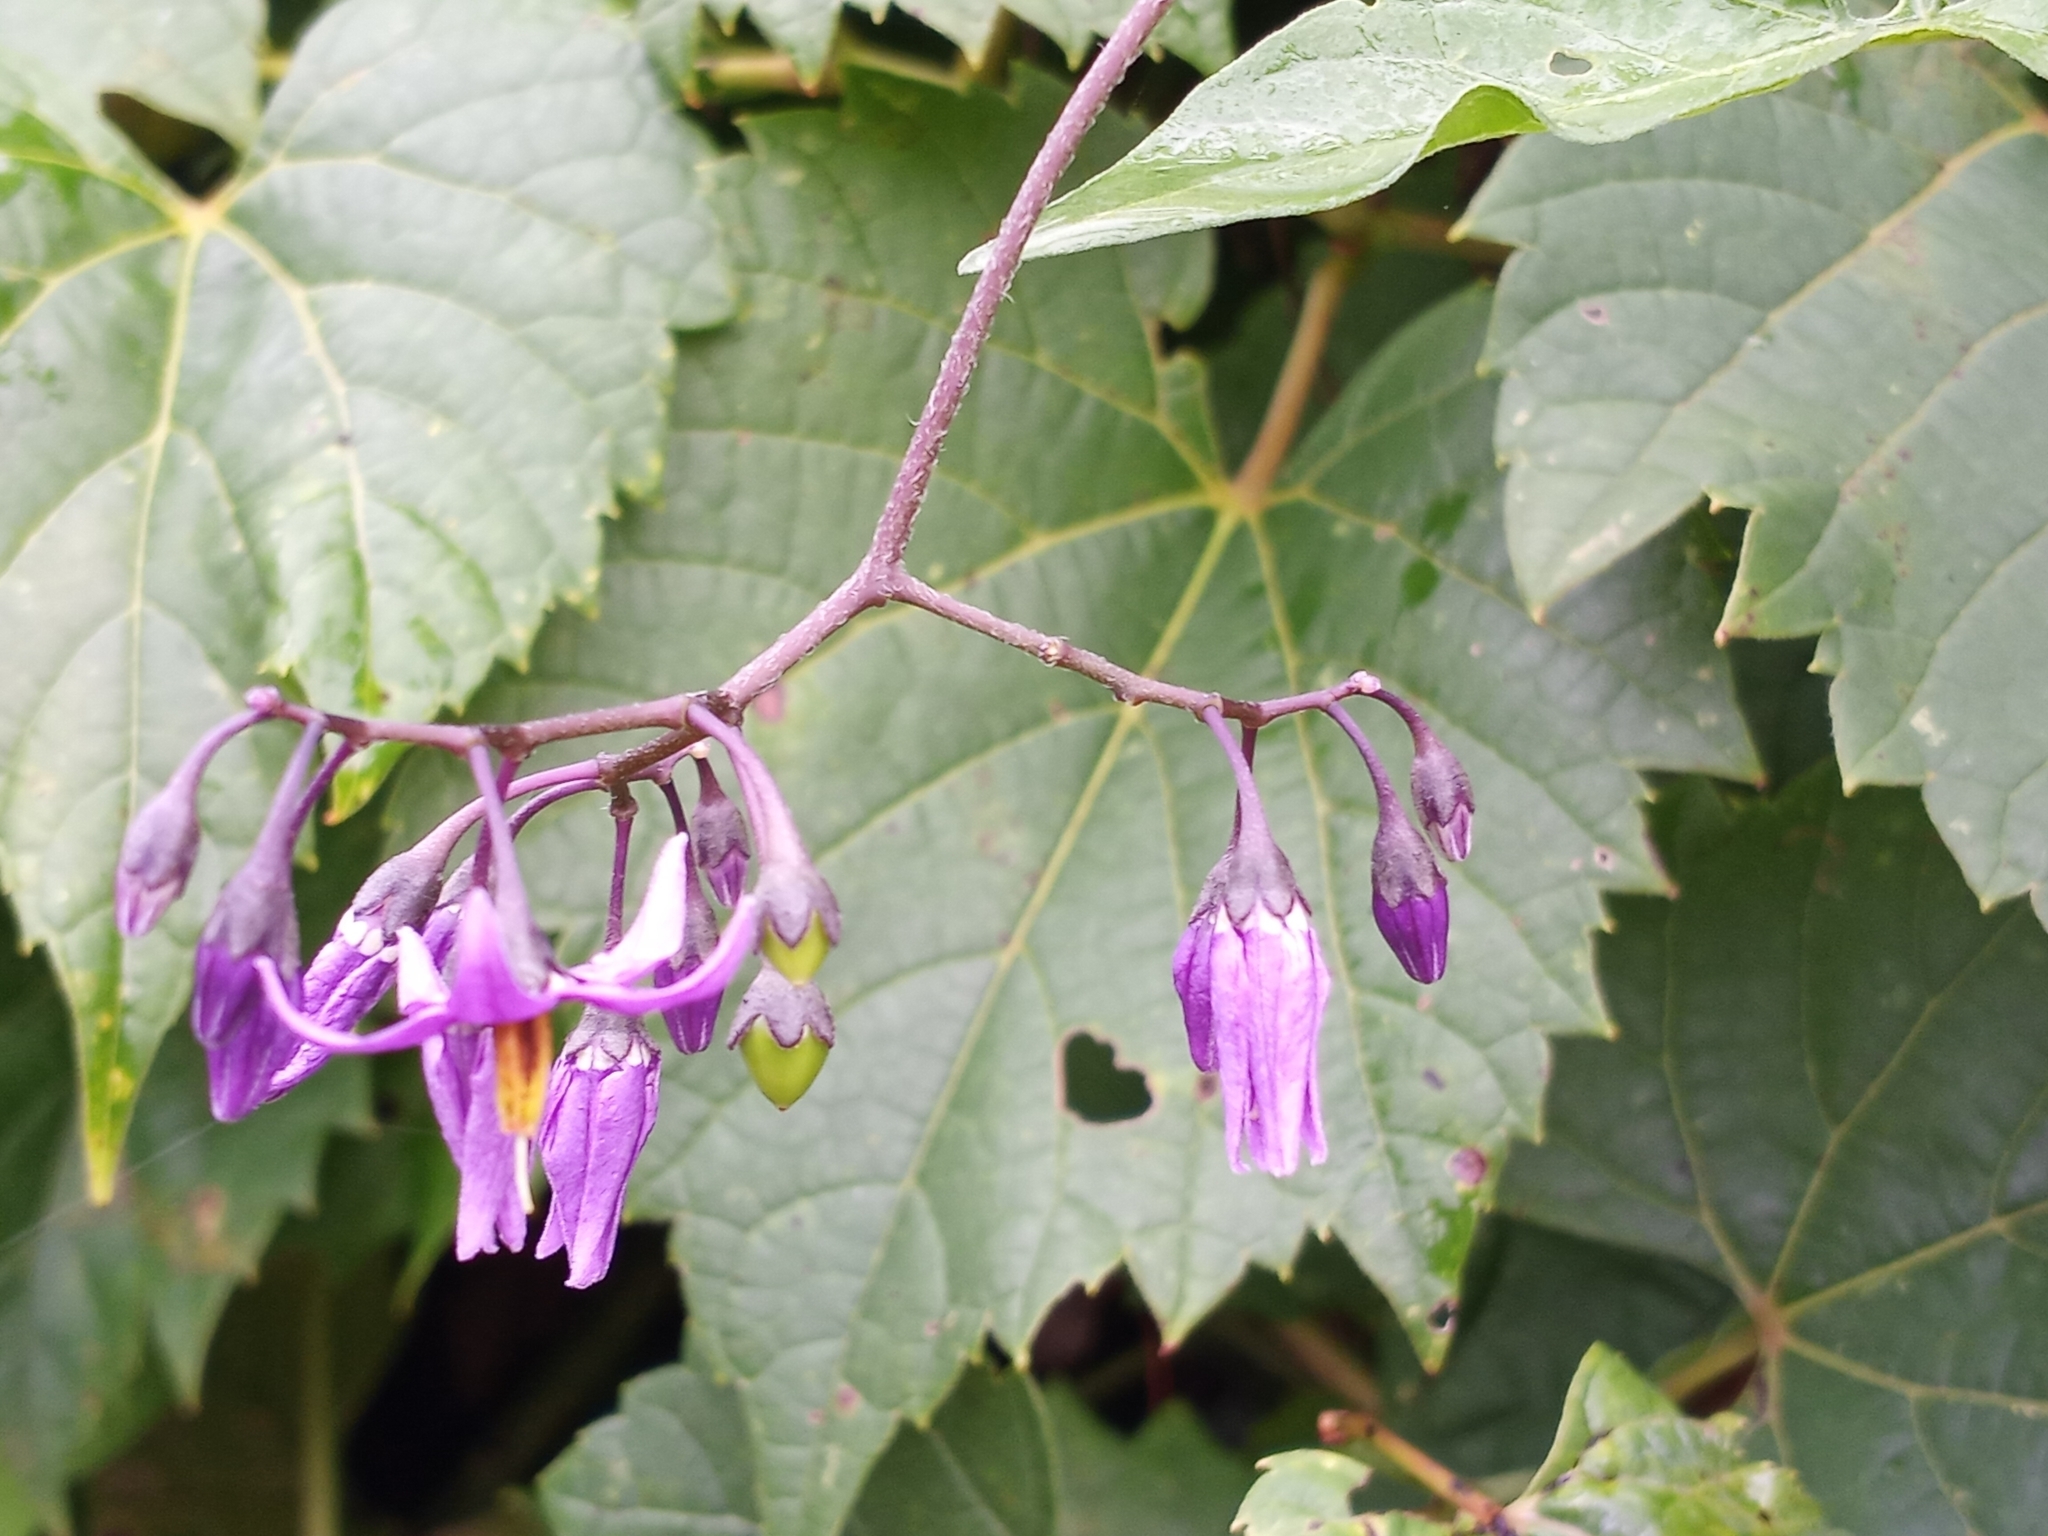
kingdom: Plantae
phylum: Tracheophyta
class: Magnoliopsida
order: Solanales
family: Solanaceae
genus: Solanum
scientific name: Solanum dulcamara
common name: Climbing nightshade
